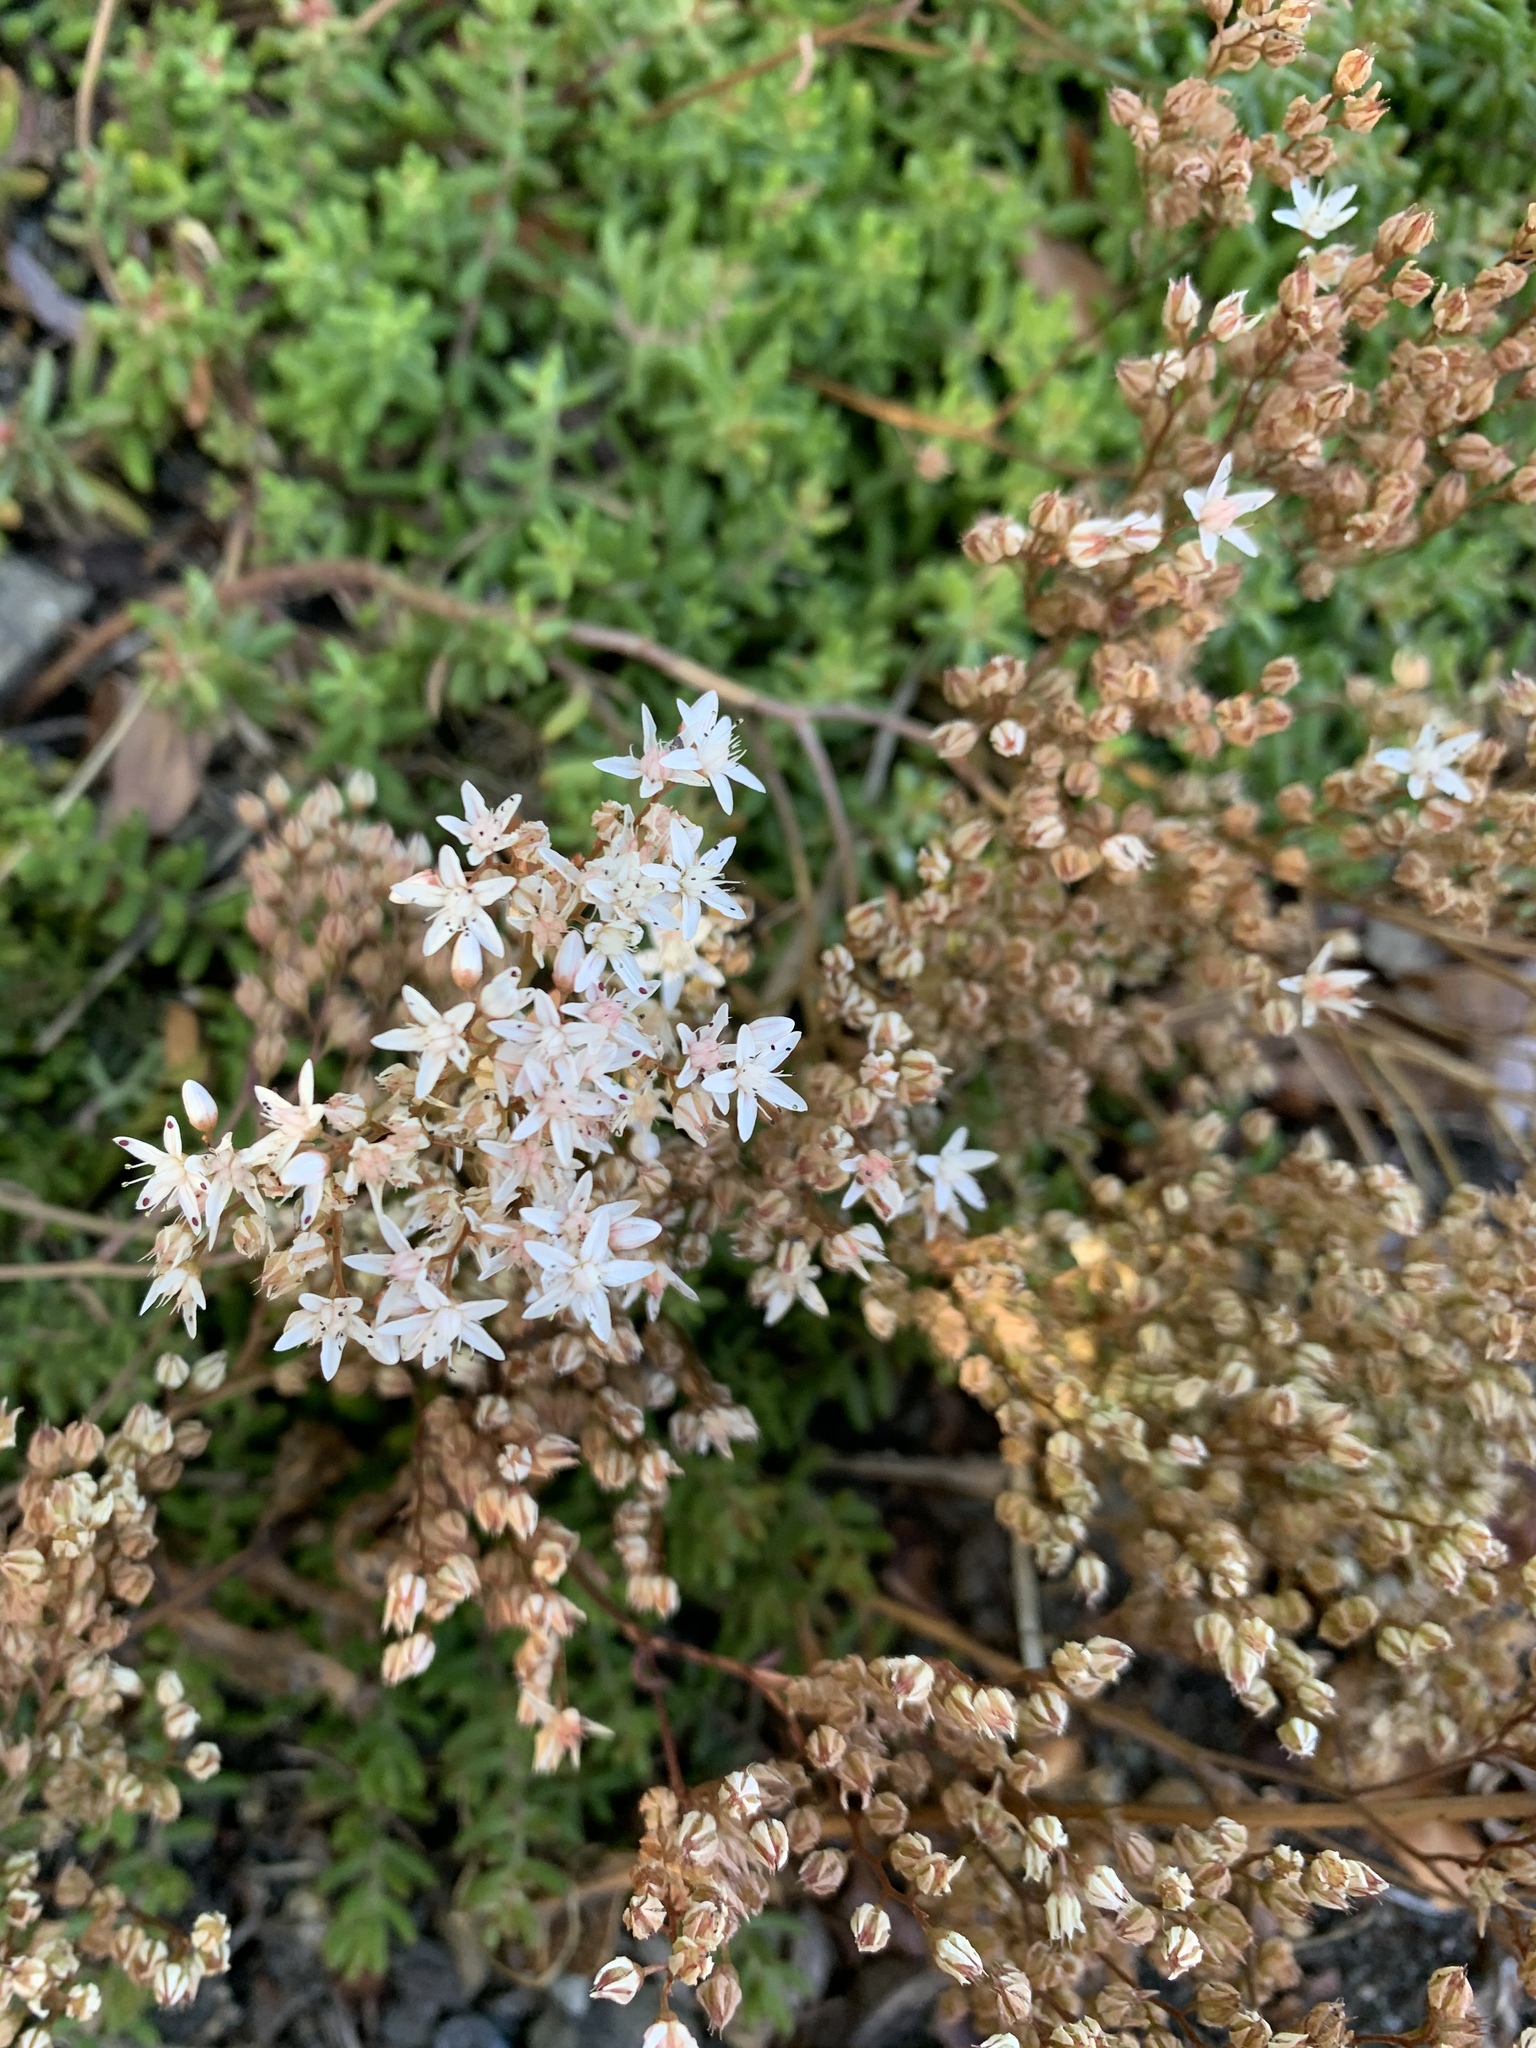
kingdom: Plantae
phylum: Tracheophyta
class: Magnoliopsida
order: Saxifragales
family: Crassulaceae
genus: Sedum
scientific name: Sedum album
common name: White stonecrop
